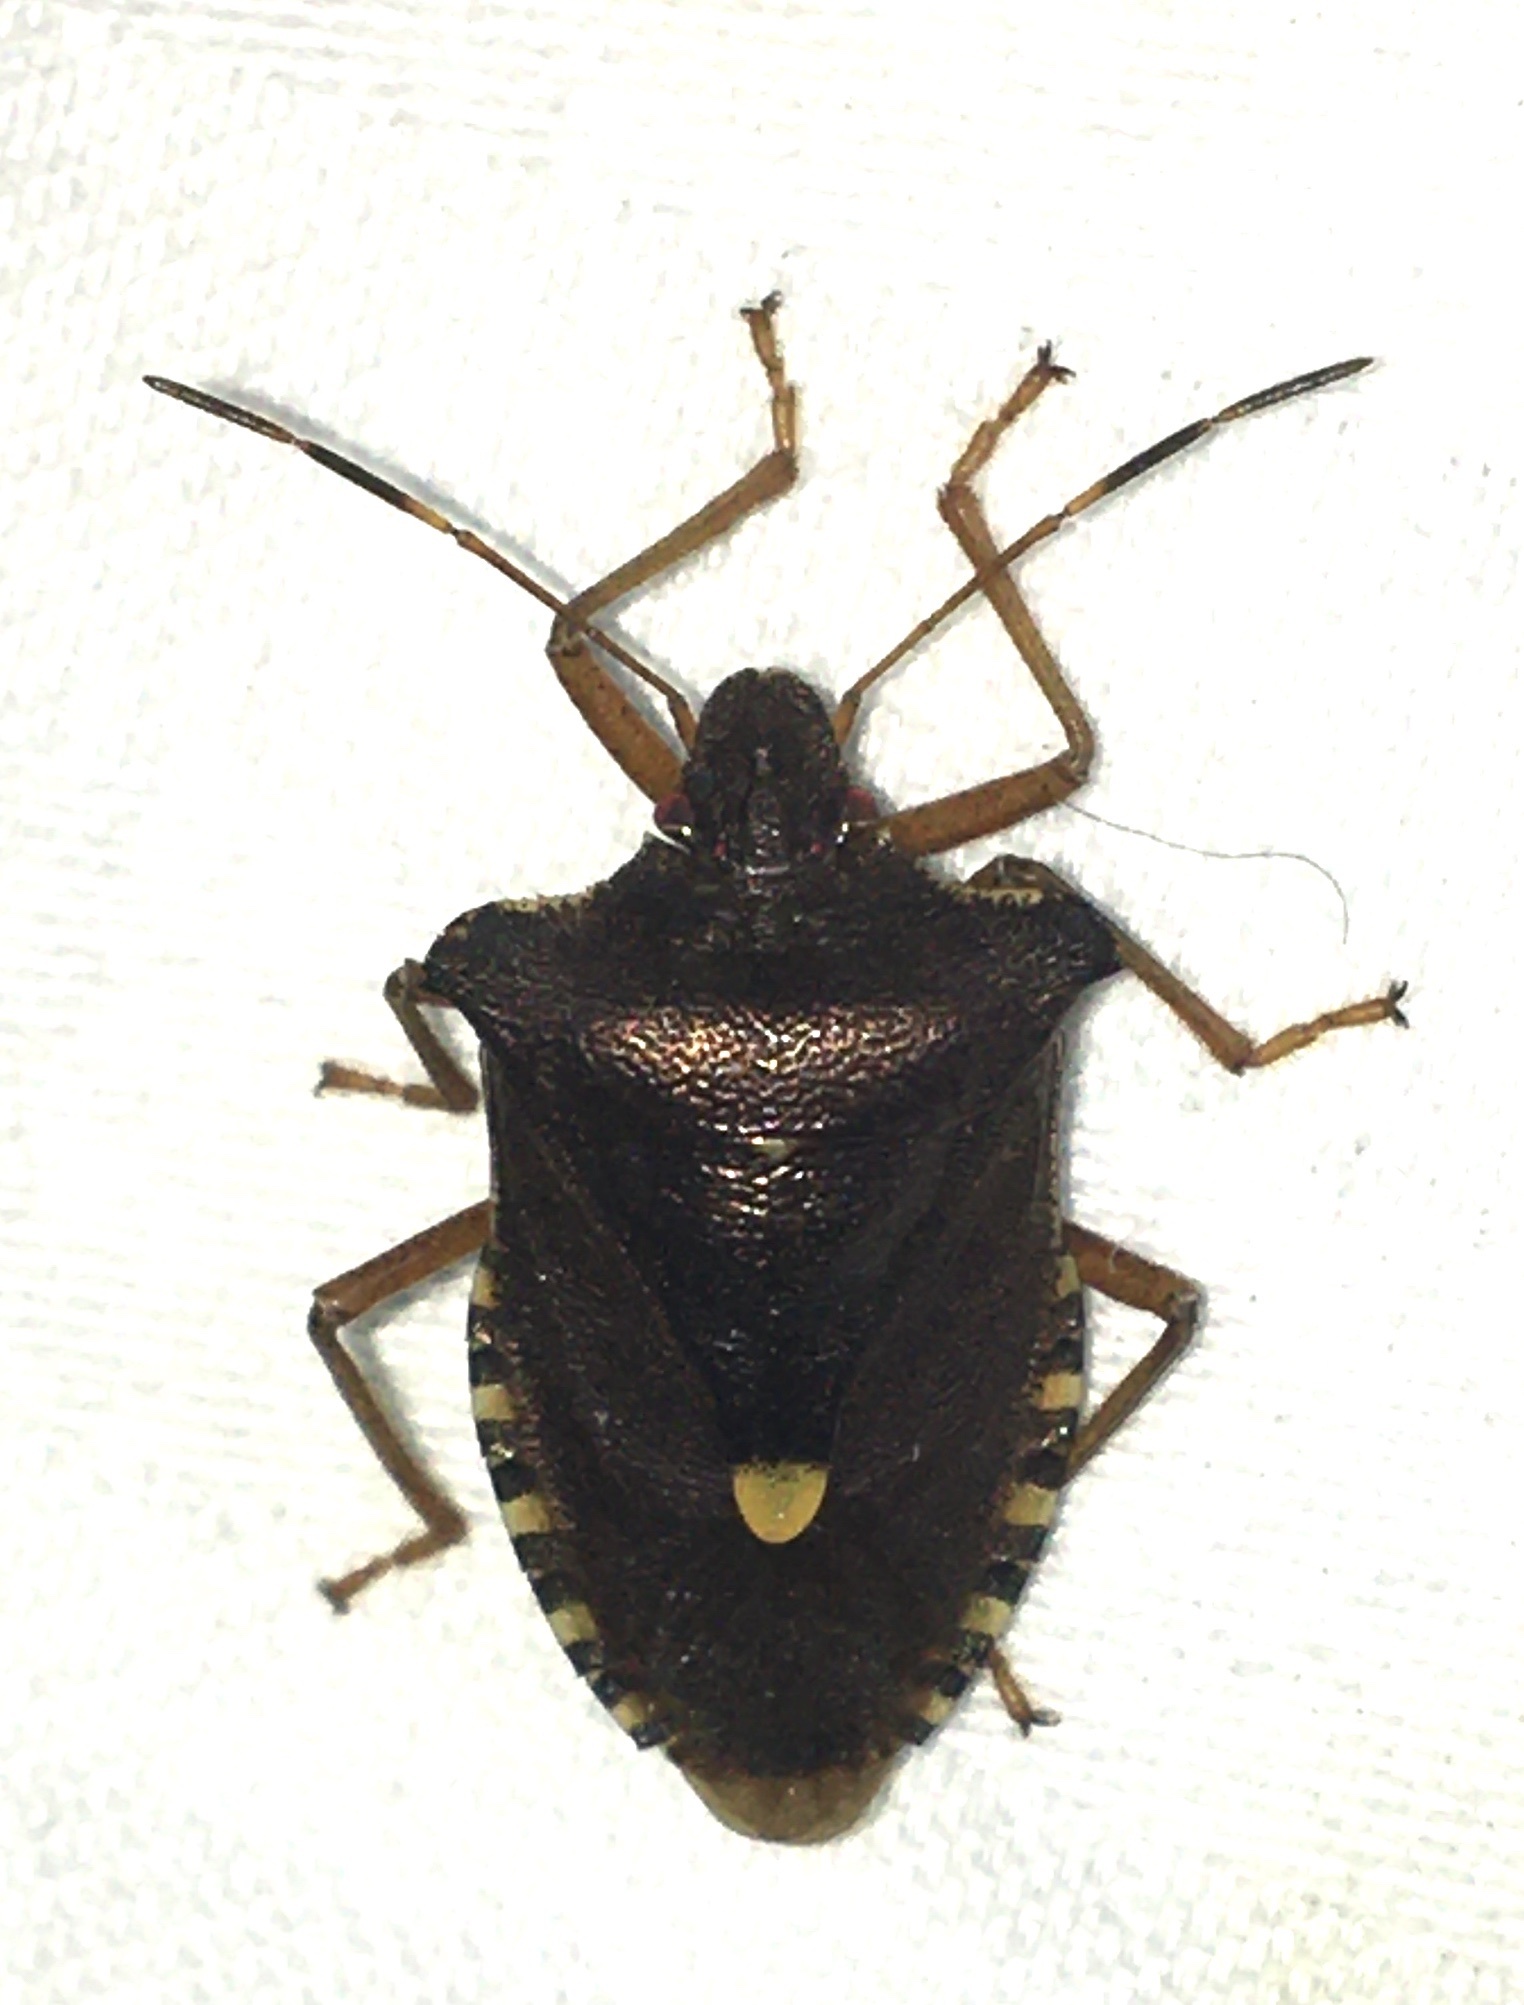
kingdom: Animalia
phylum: Arthropoda
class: Insecta
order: Hemiptera
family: Pentatomidae
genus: Pentatoma
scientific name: Pentatoma rufipes
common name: Forest bug
